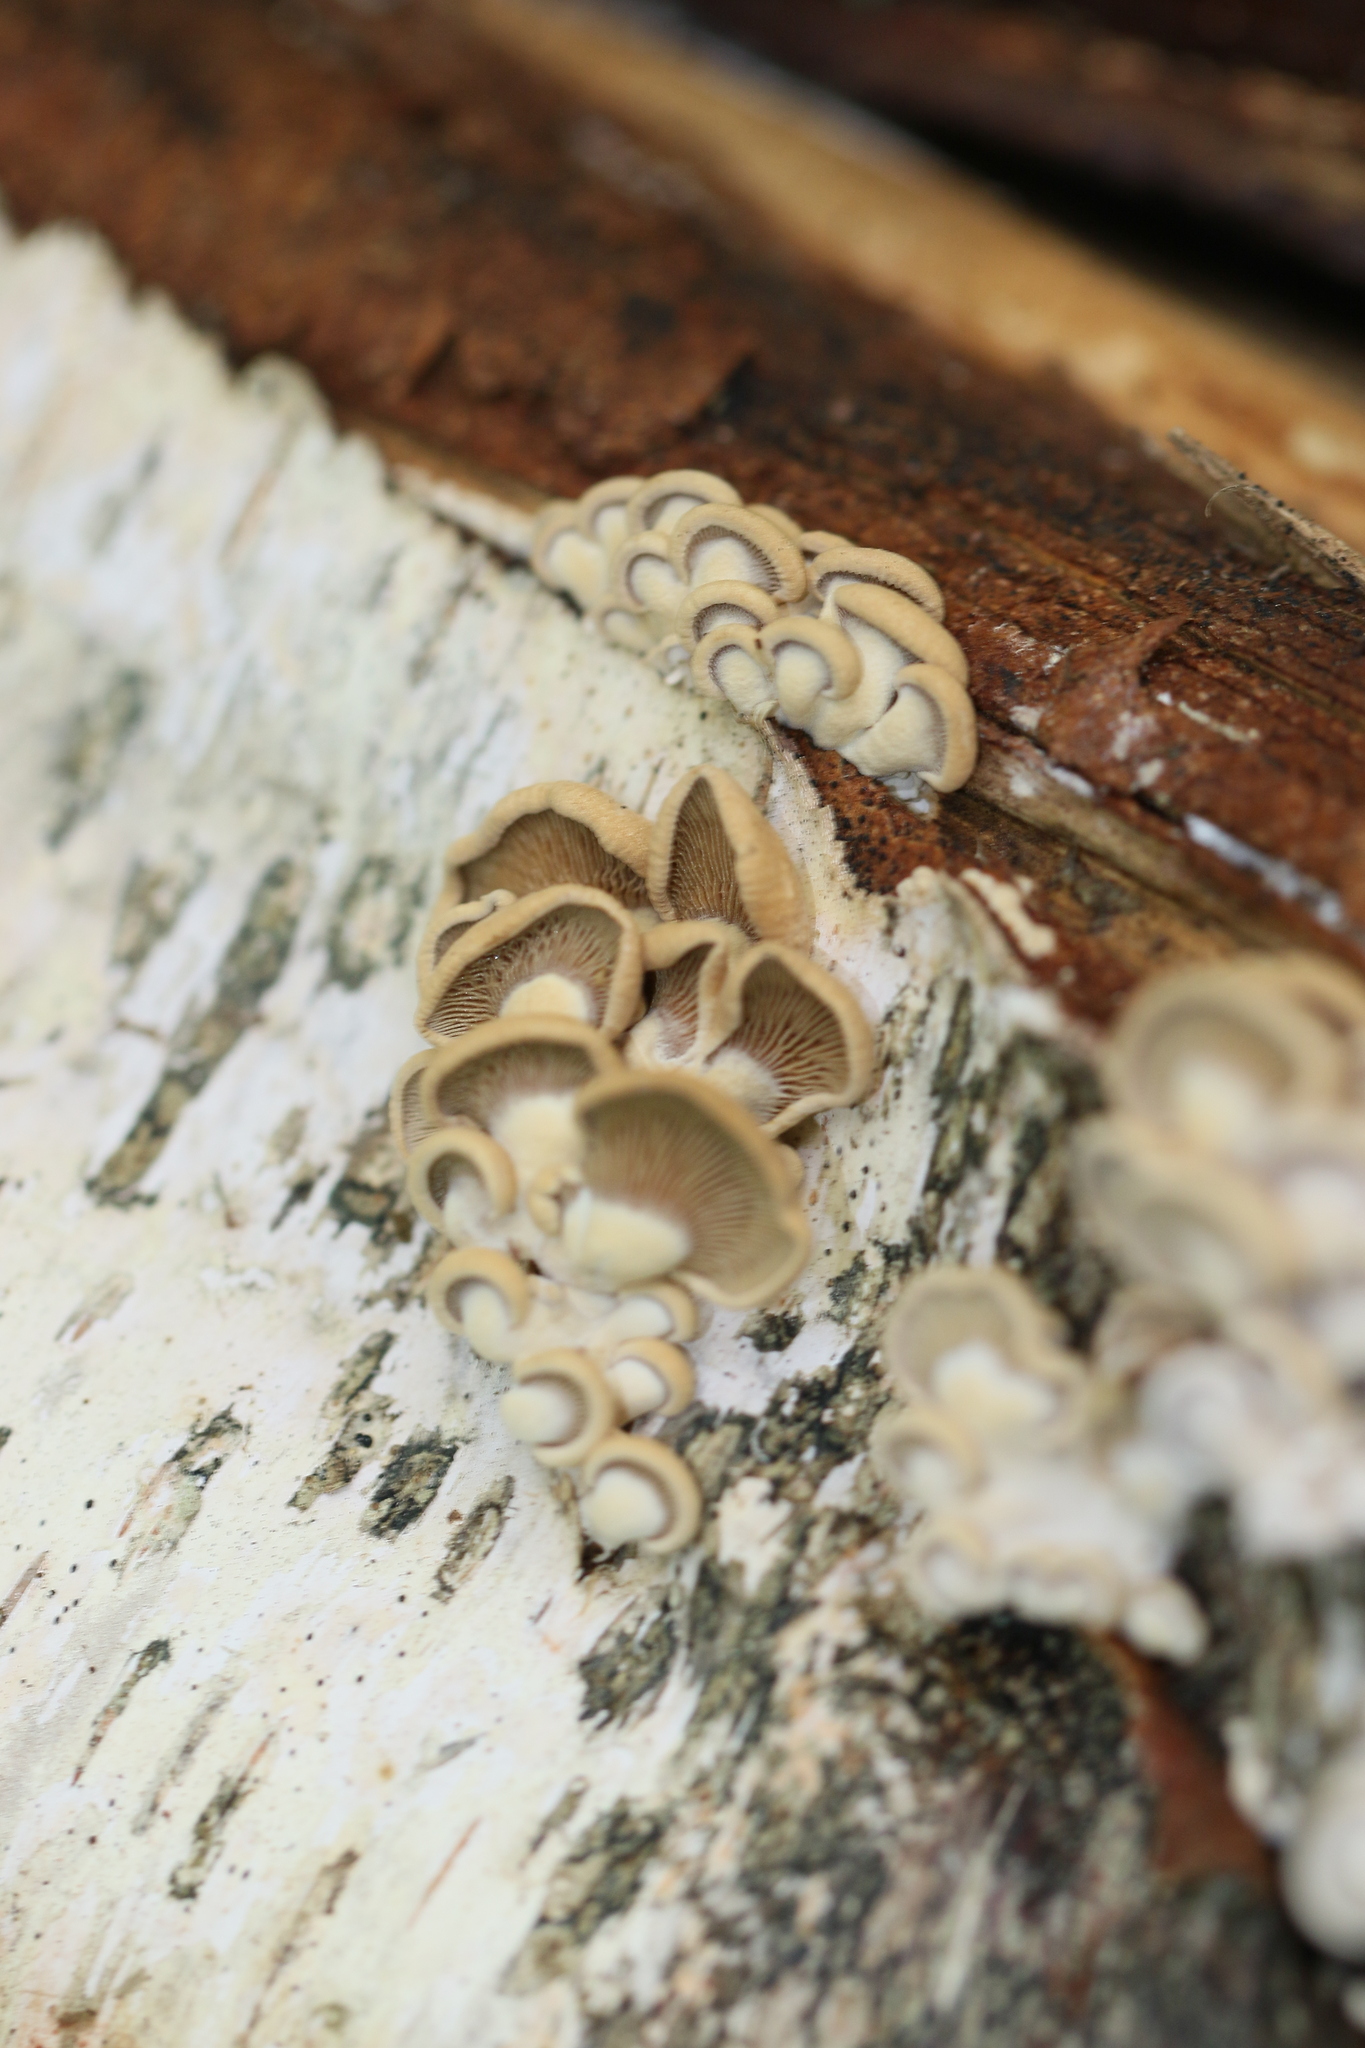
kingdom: Fungi
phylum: Basidiomycota
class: Agaricomycetes
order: Agaricales
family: Mycenaceae
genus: Panellus
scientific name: Panellus stipticus
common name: Bitter oysterling
